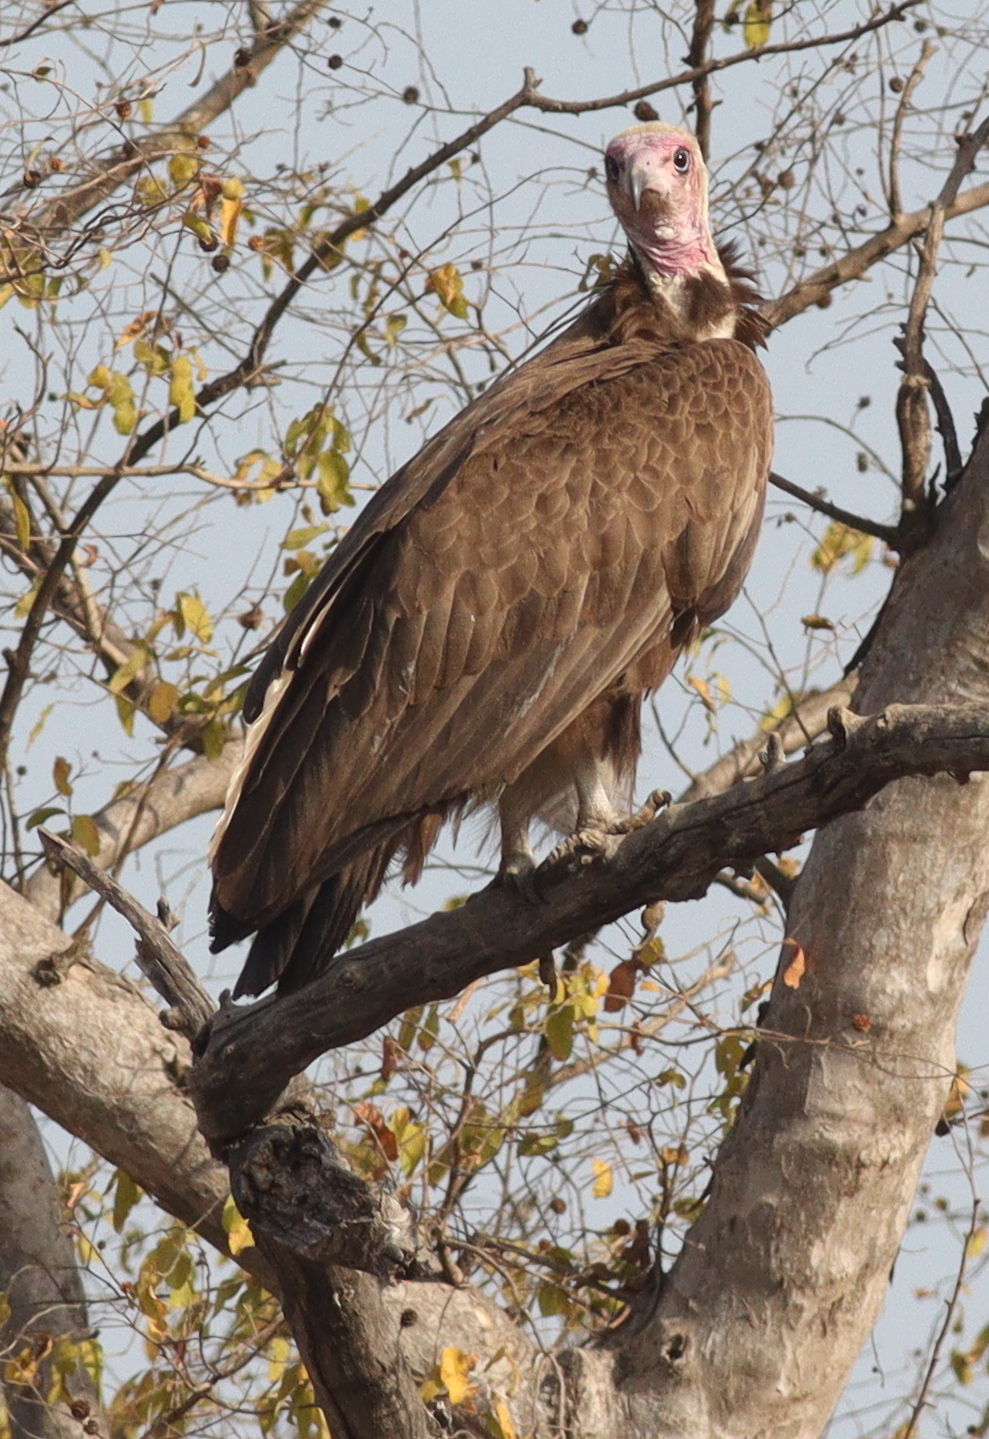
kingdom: Animalia
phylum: Chordata
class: Aves
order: Accipitriformes
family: Accipitridae
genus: Necrosyrtes
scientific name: Necrosyrtes monachus
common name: Hooded vulture
